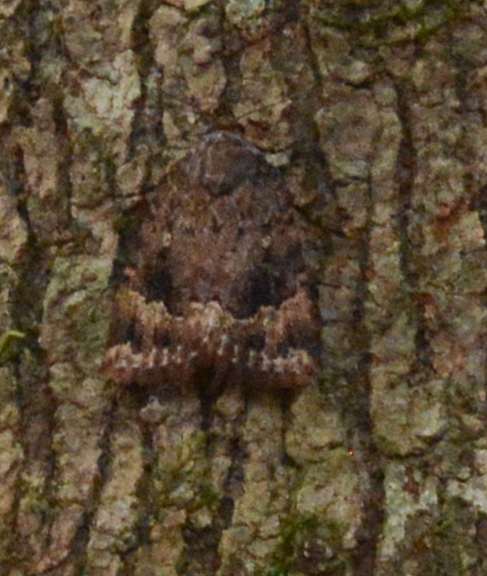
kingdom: Animalia
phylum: Arthropoda
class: Insecta
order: Lepidoptera
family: Noctuidae
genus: Amphipyra
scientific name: Amphipyra pyramidoides
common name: American copper underwing
